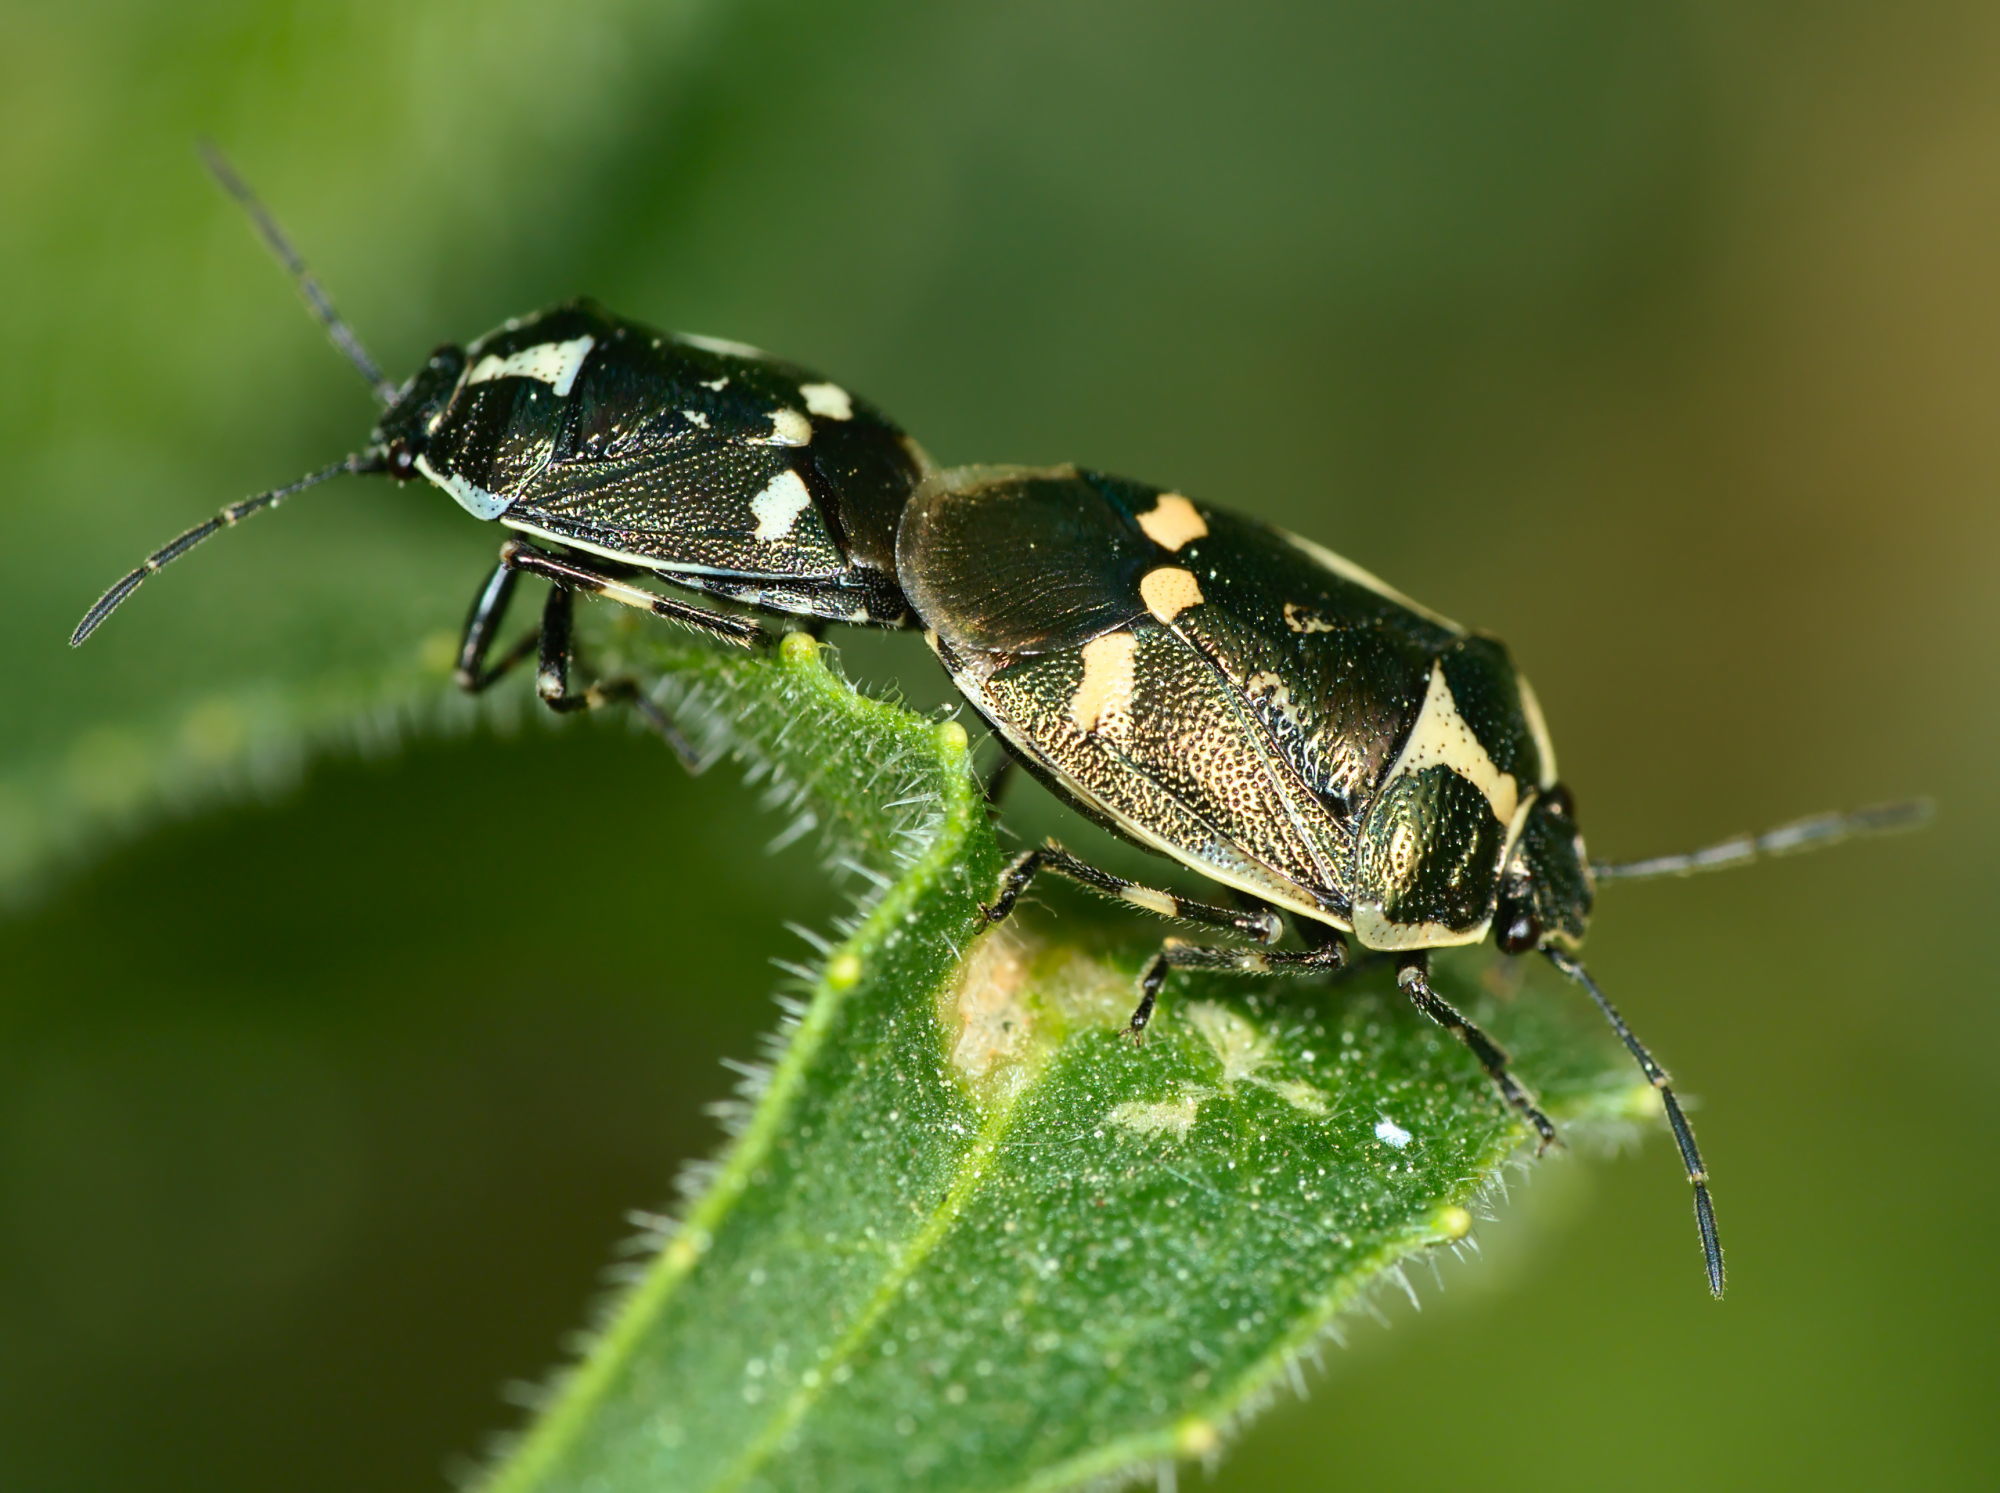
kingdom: Animalia
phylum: Arthropoda
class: Insecta
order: Hemiptera
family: Pentatomidae
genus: Eurydema
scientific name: Eurydema oleracea
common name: Cabbage bug
